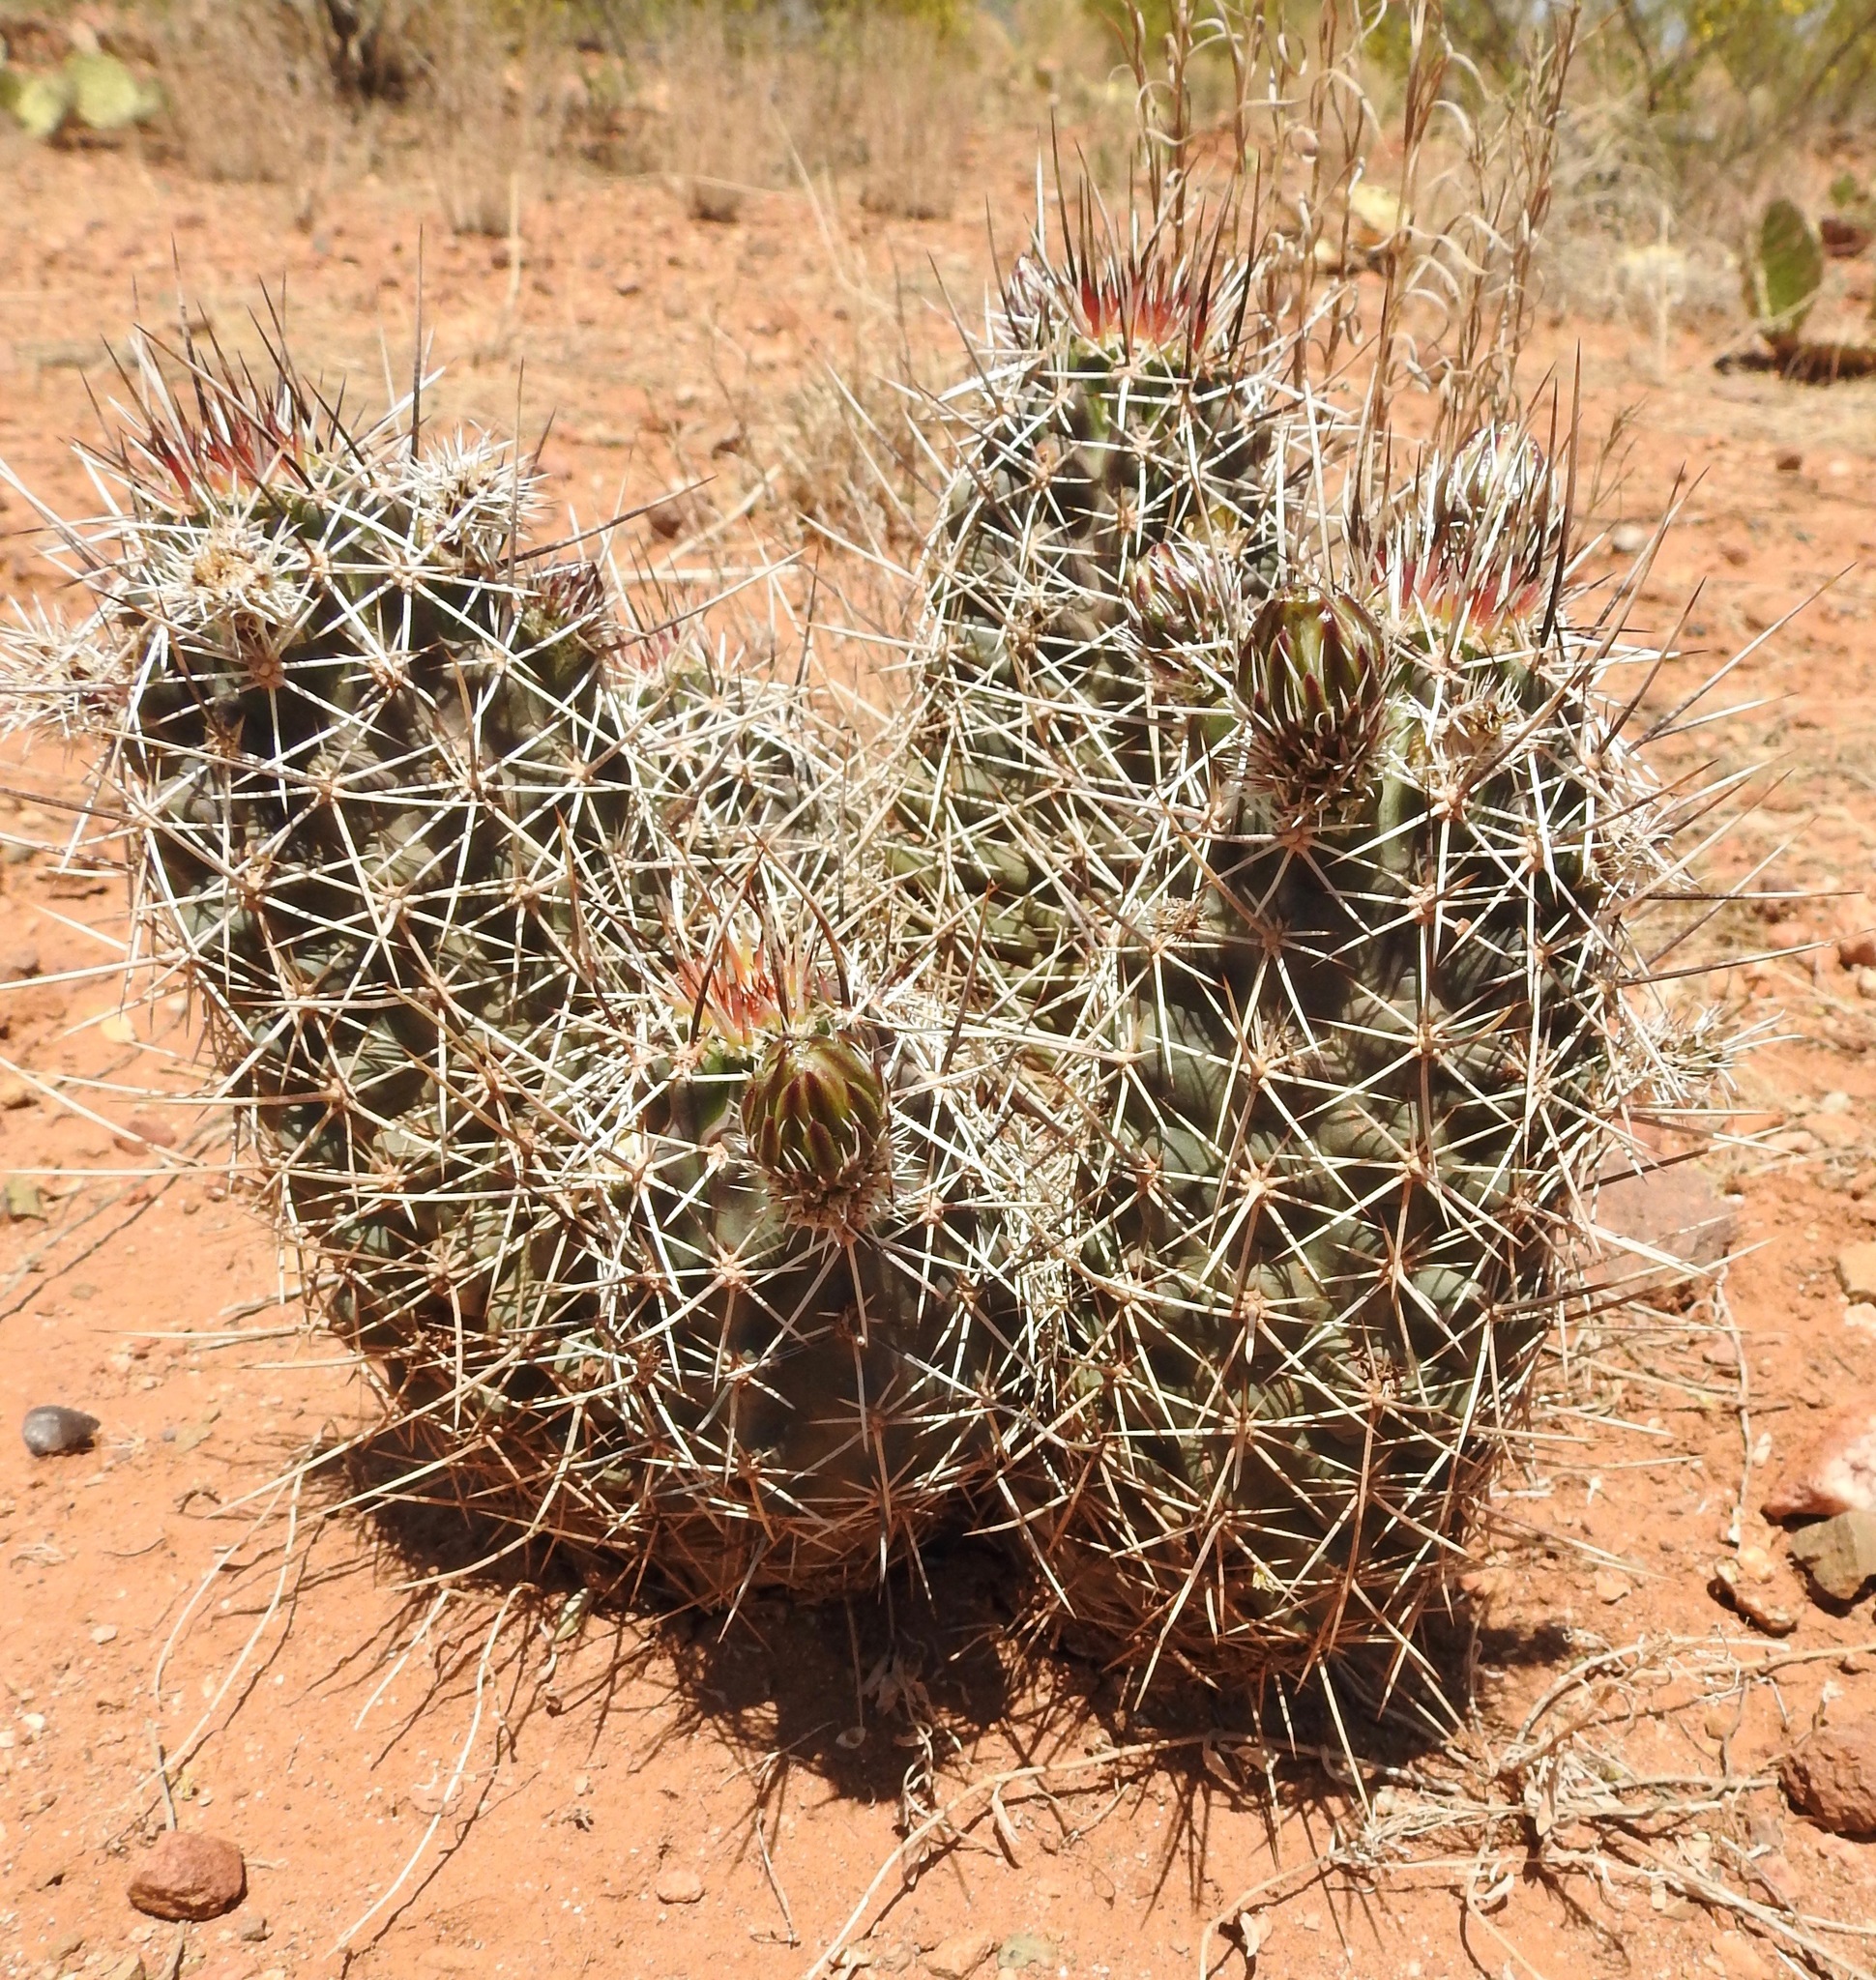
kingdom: Plantae
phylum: Tracheophyta
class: Magnoliopsida
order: Caryophyllales
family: Cactaceae
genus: Echinocereus
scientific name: Echinocereus fendleri
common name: Fendler's hedgehog cactus
